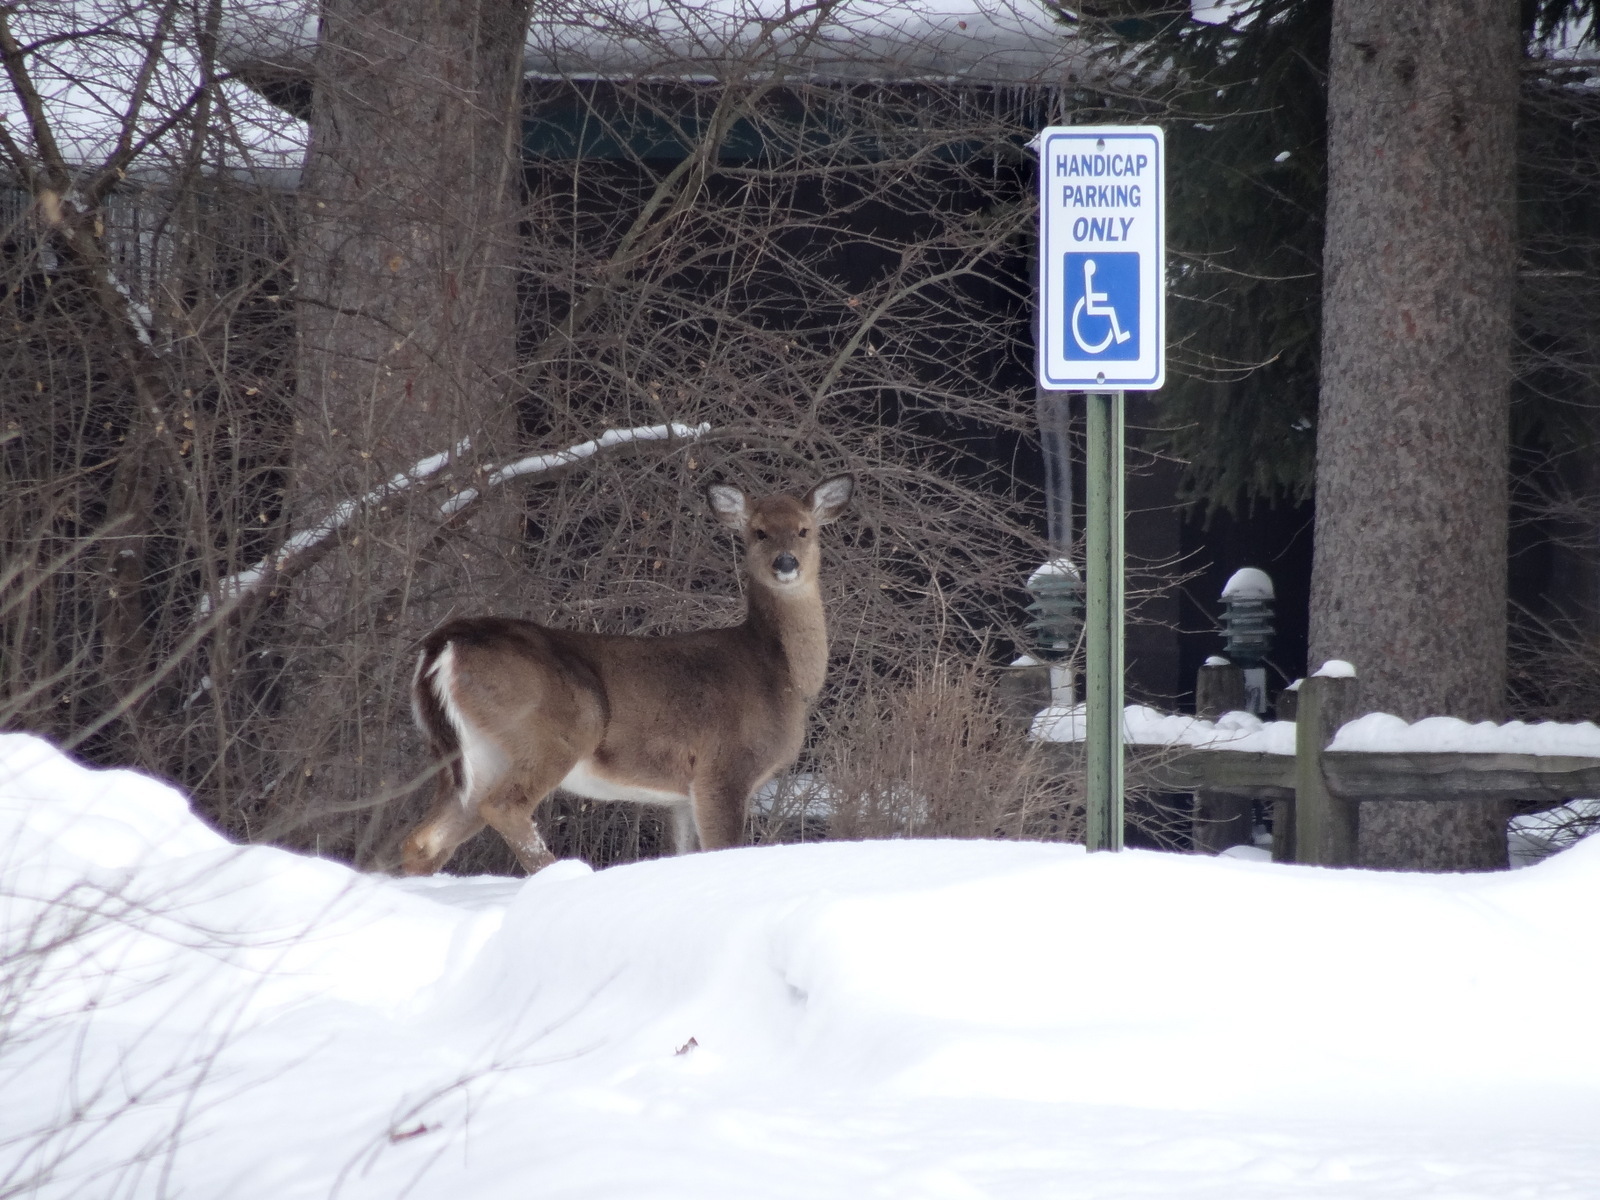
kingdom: Animalia
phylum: Chordata
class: Mammalia
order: Artiodactyla
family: Cervidae
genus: Odocoileus
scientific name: Odocoileus virginianus
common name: White-tailed deer
